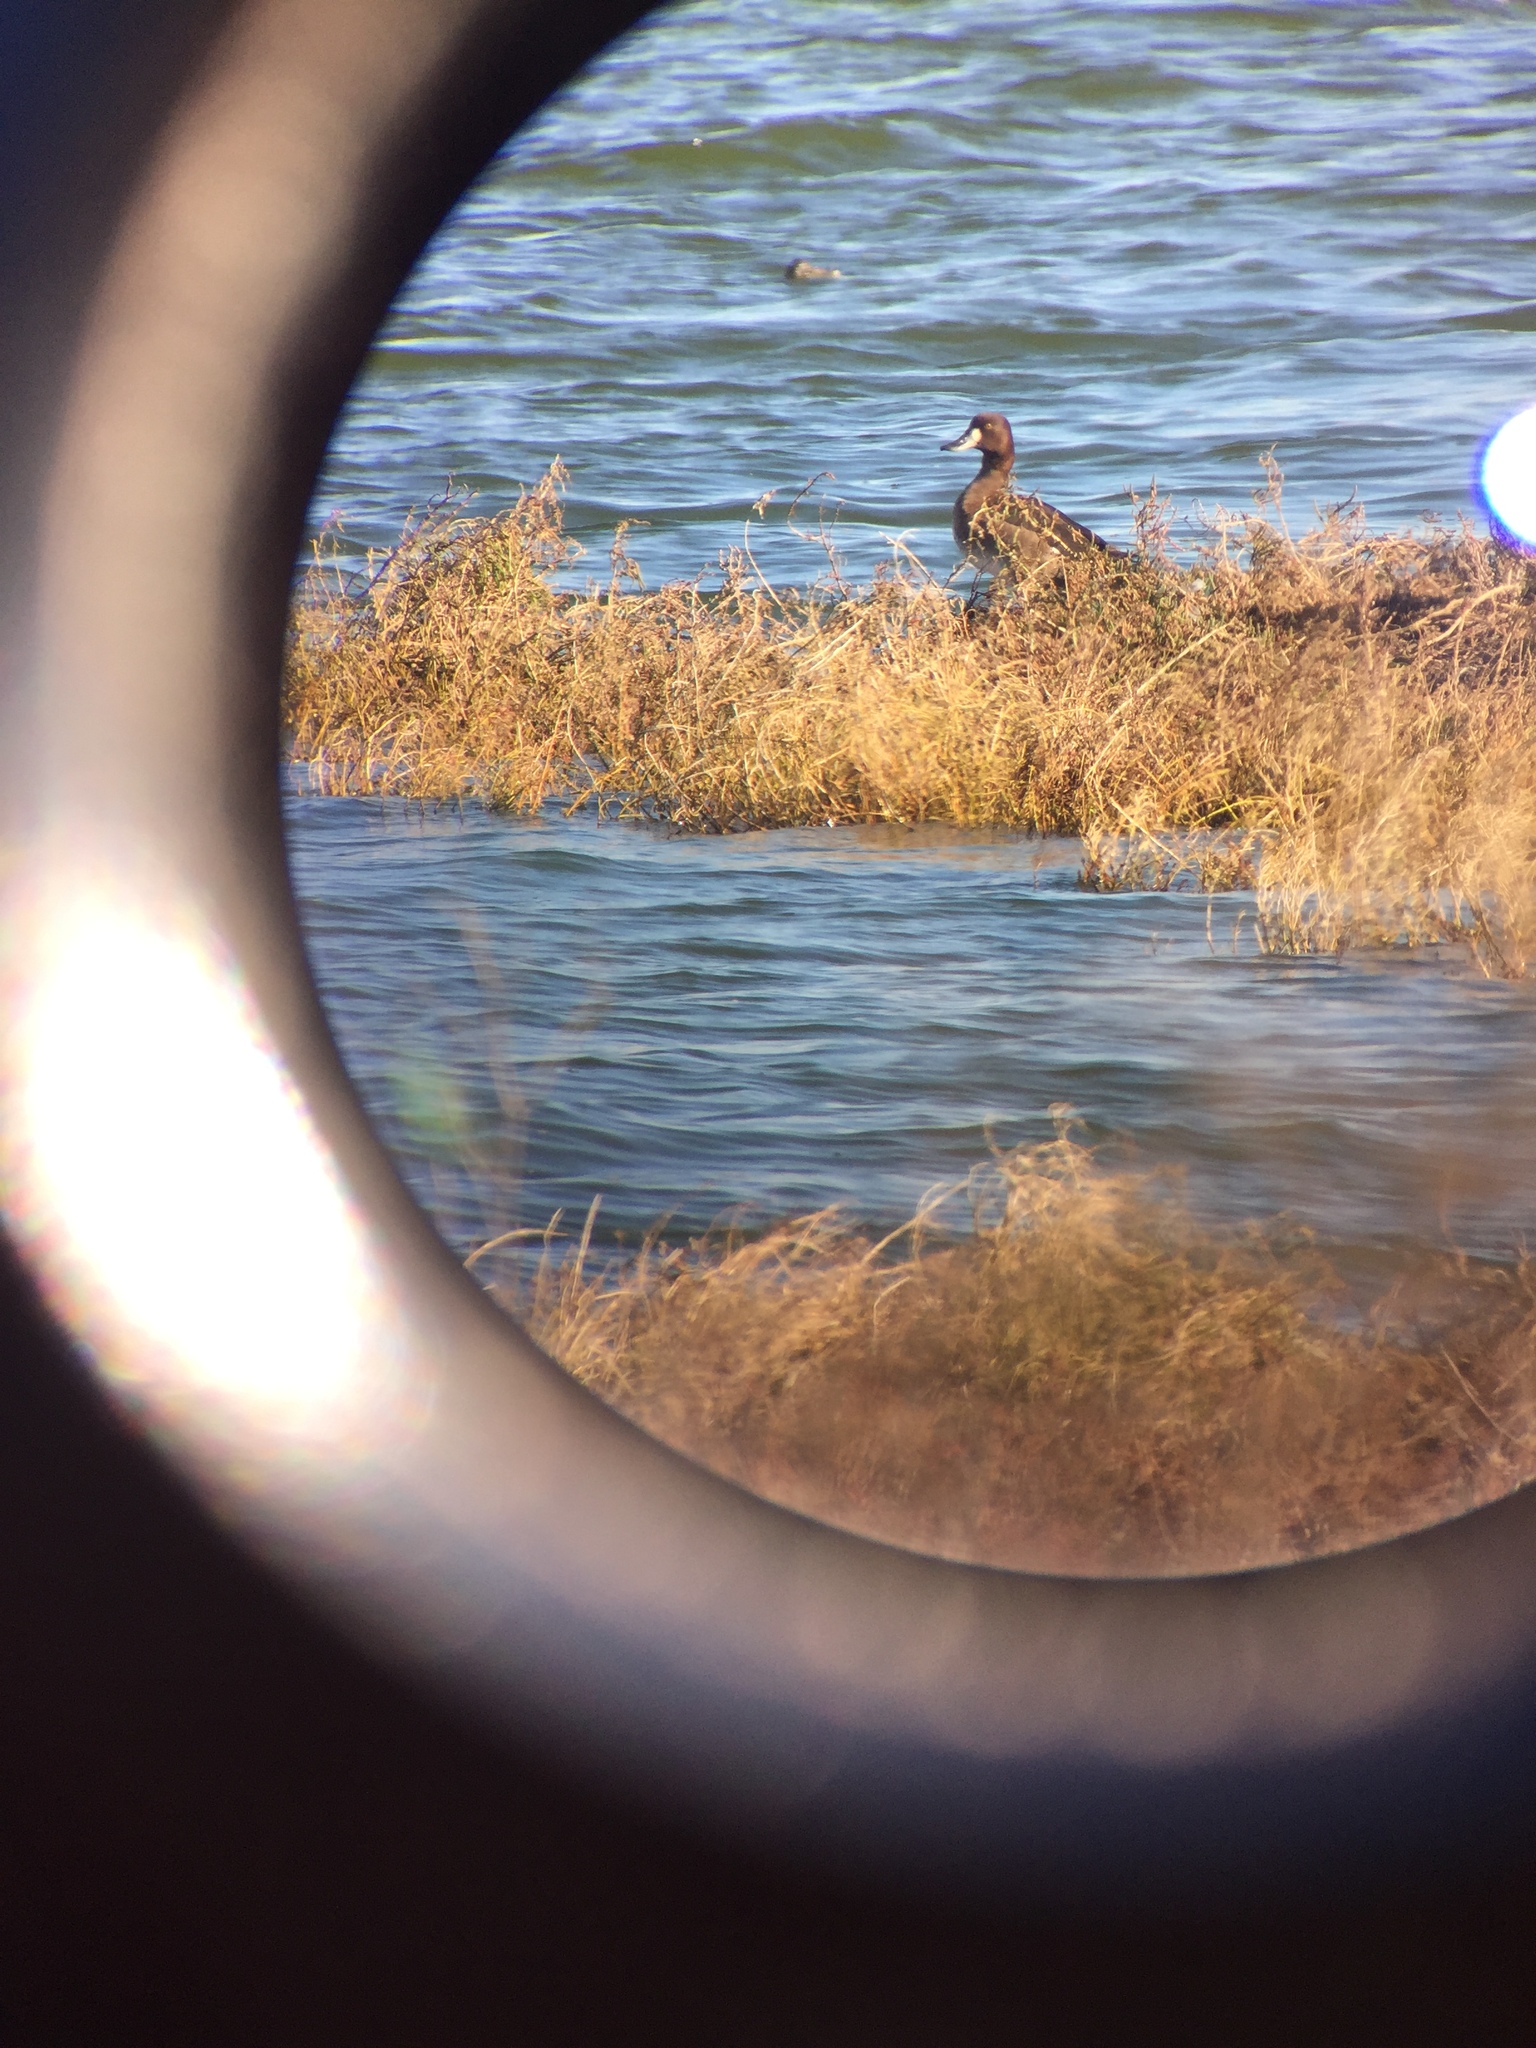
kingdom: Animalia
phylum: Chordata
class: Aves
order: Anseriformes
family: Anatidae
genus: Aythya
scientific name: Aythya marila
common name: Greater scaup
